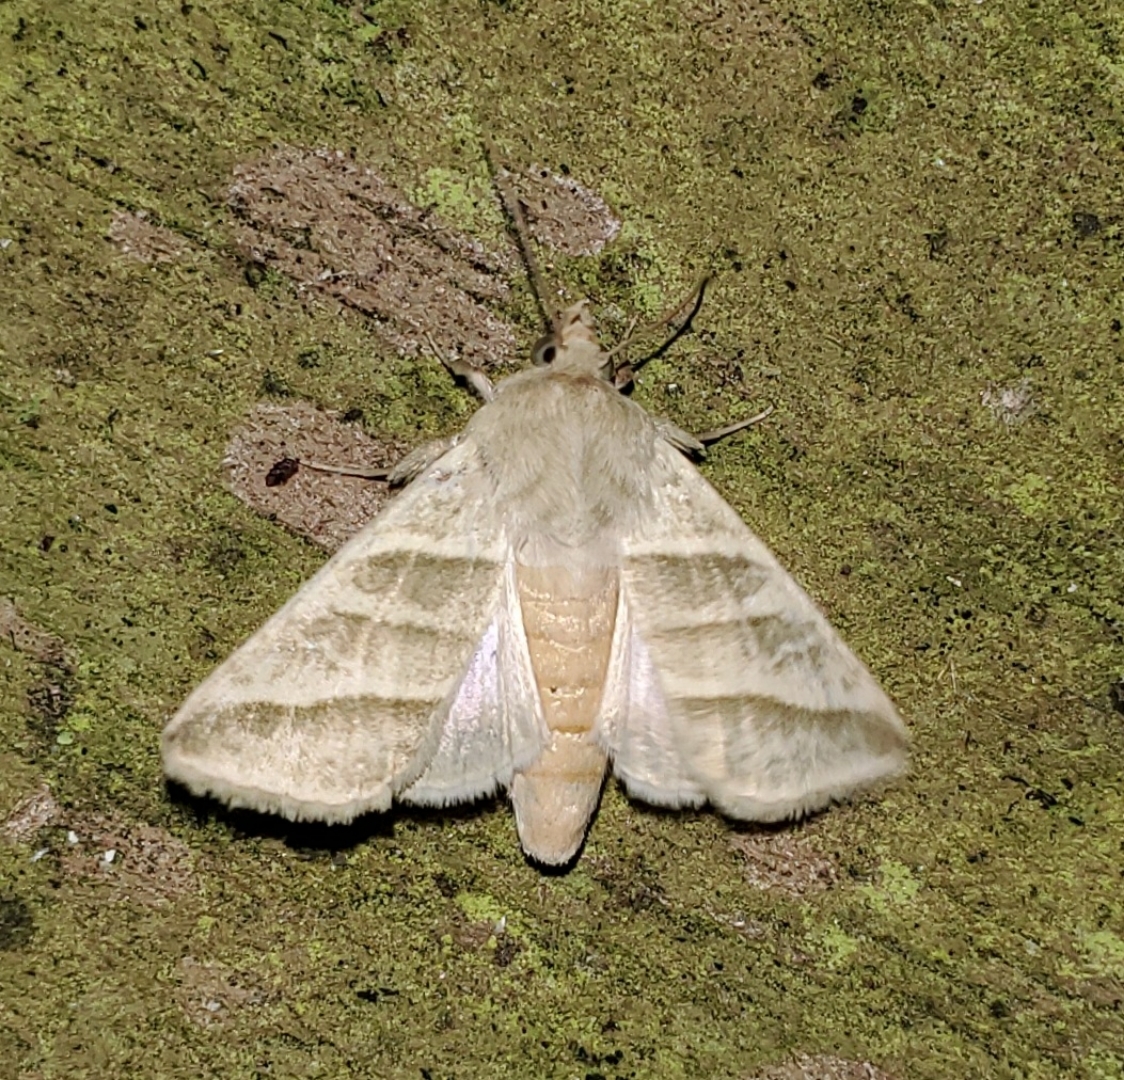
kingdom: Animalia
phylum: Arthropoda
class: Insecta
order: Lepidoptera
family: Noctuidae
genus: Chloridea
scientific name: Chloridea subflexa
